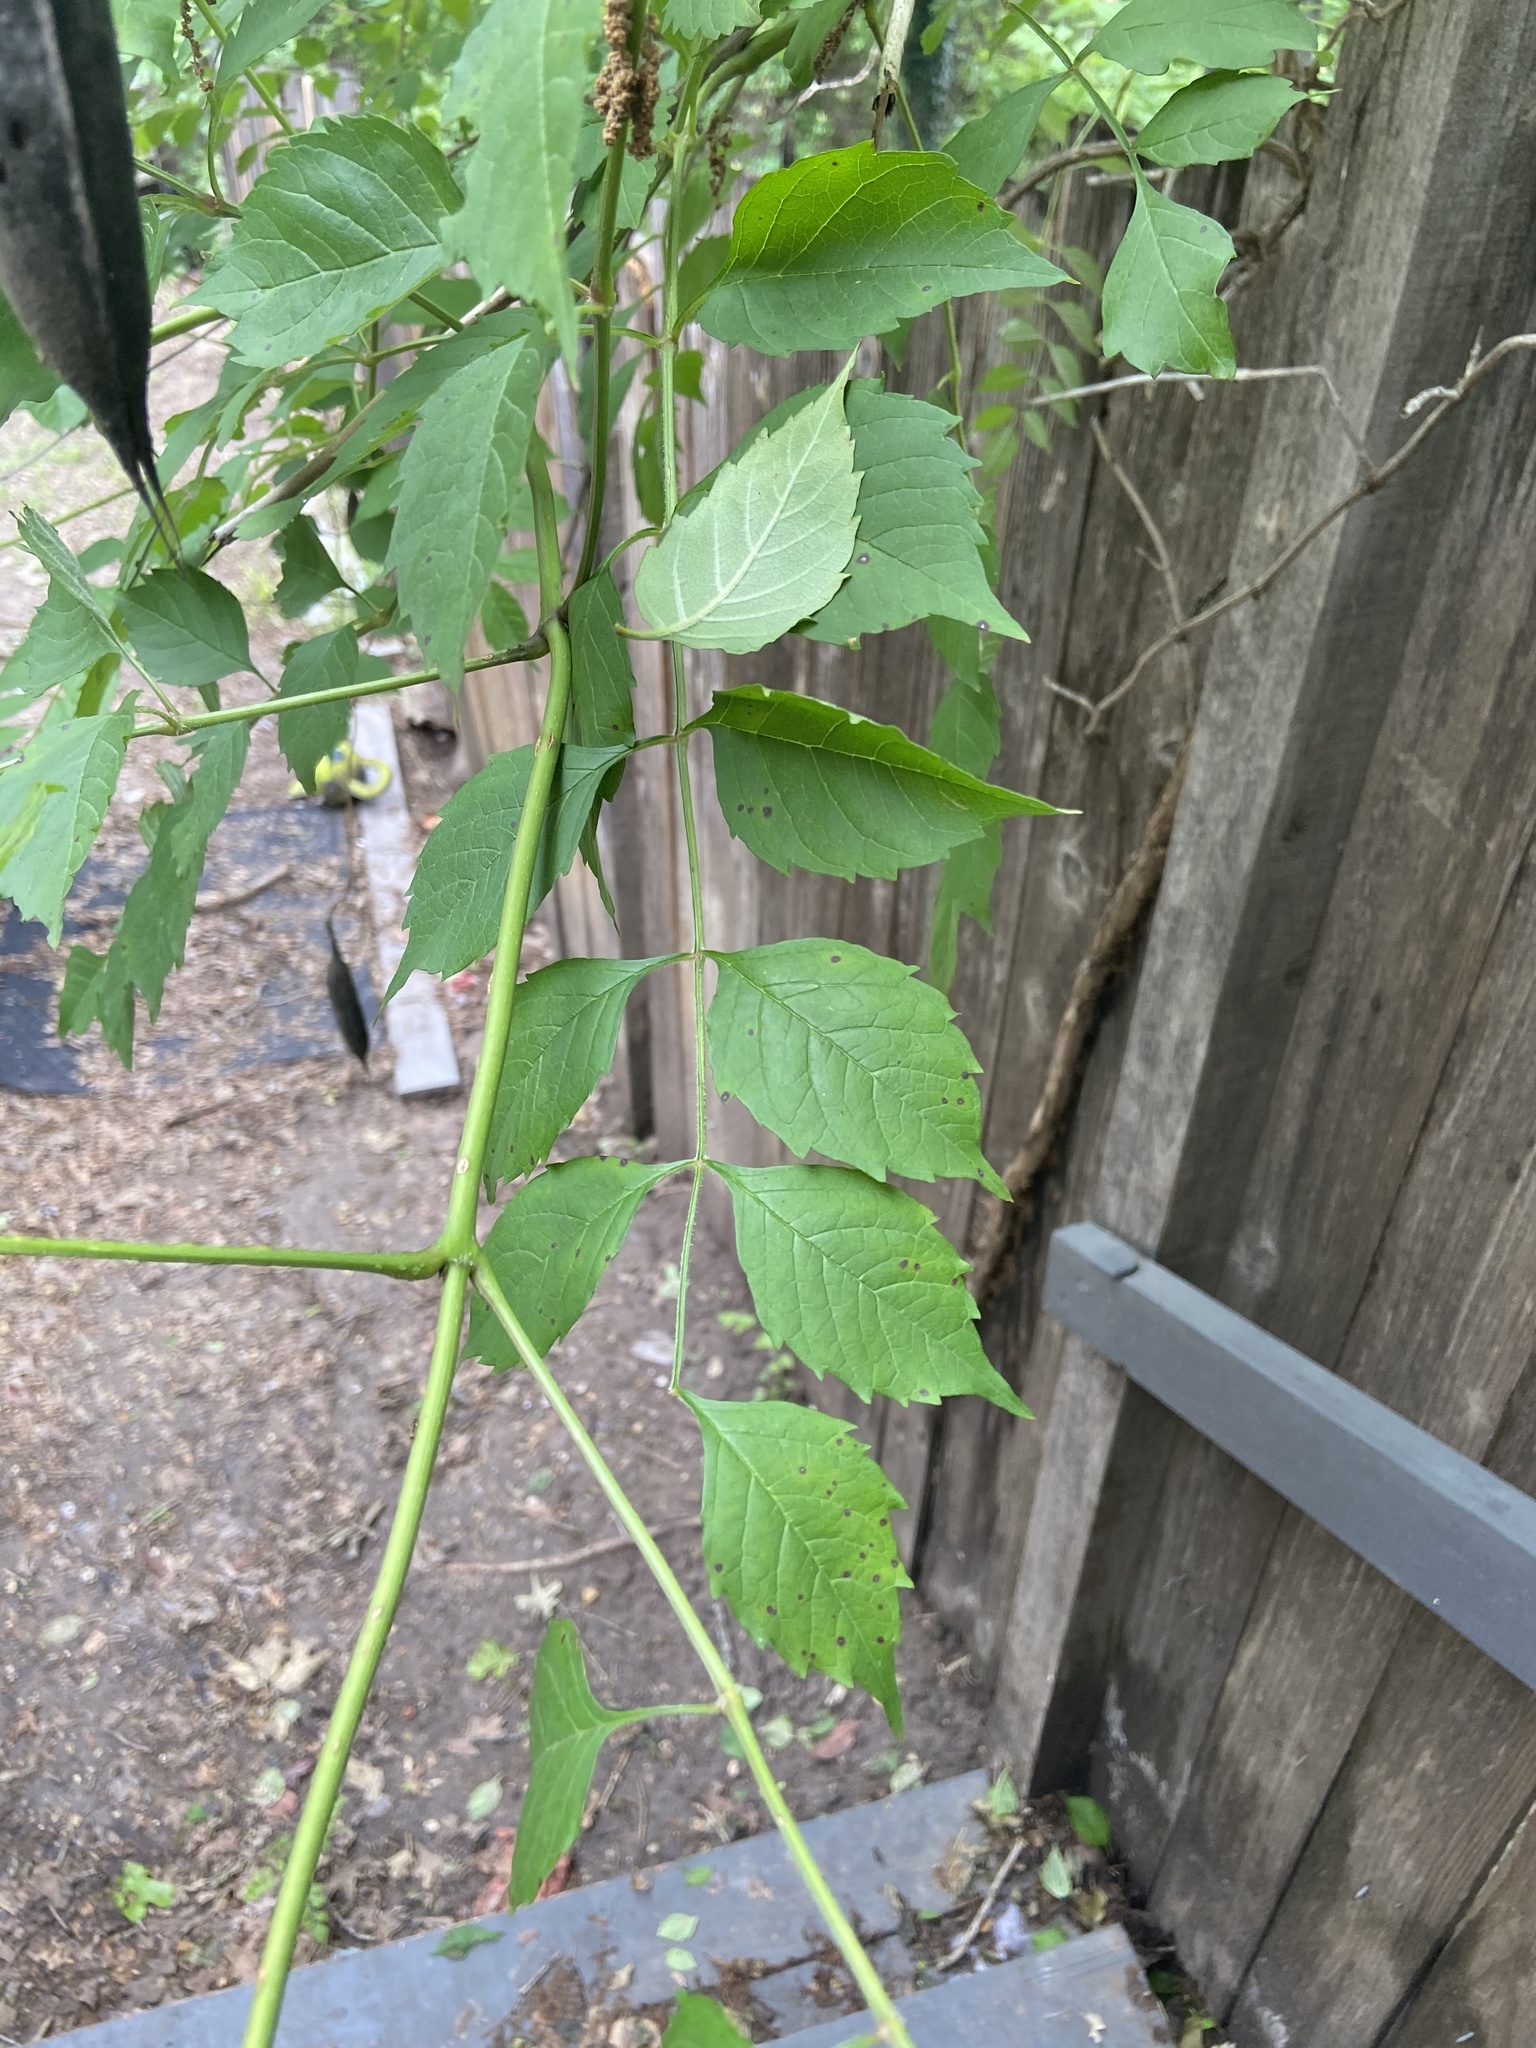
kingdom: Plantae
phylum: Tracheophyta
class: Magnoliopsida
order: Lamiales
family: Bignoniaceae
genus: Campsis
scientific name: Campsis radicans
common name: Trumpet-creeper
